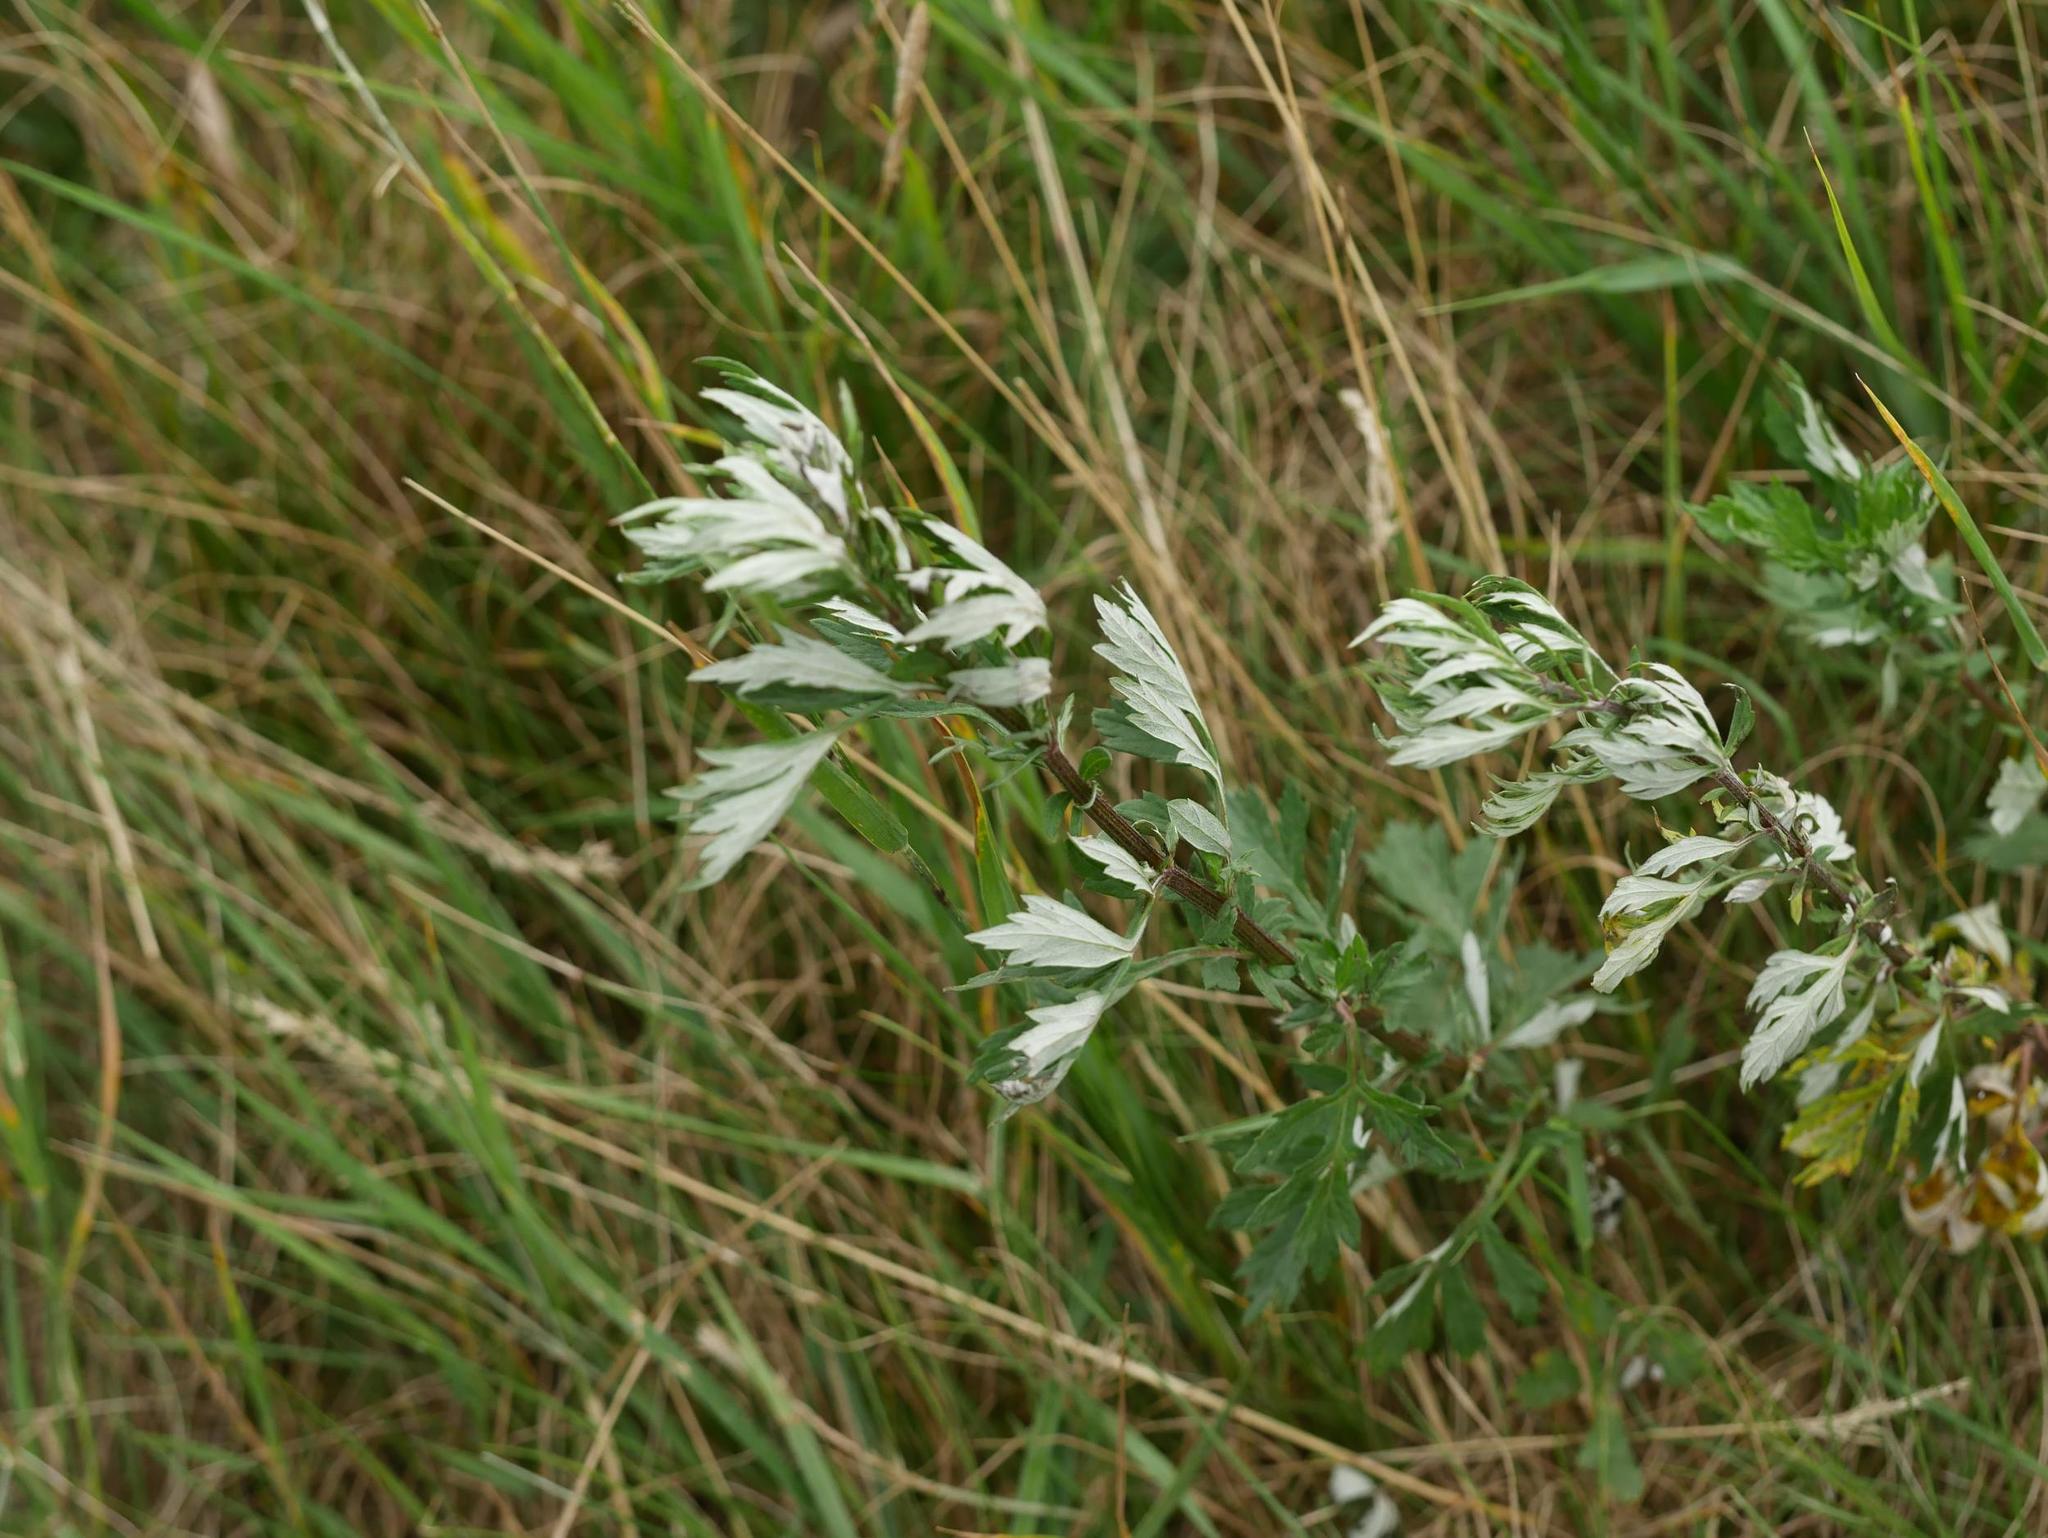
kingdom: Plantae
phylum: Tracheophyta
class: Magnoliopsida
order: Asterales
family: Asteraceae
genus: Artemisia
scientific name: Artemisia vulgaris
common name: Mugwort
